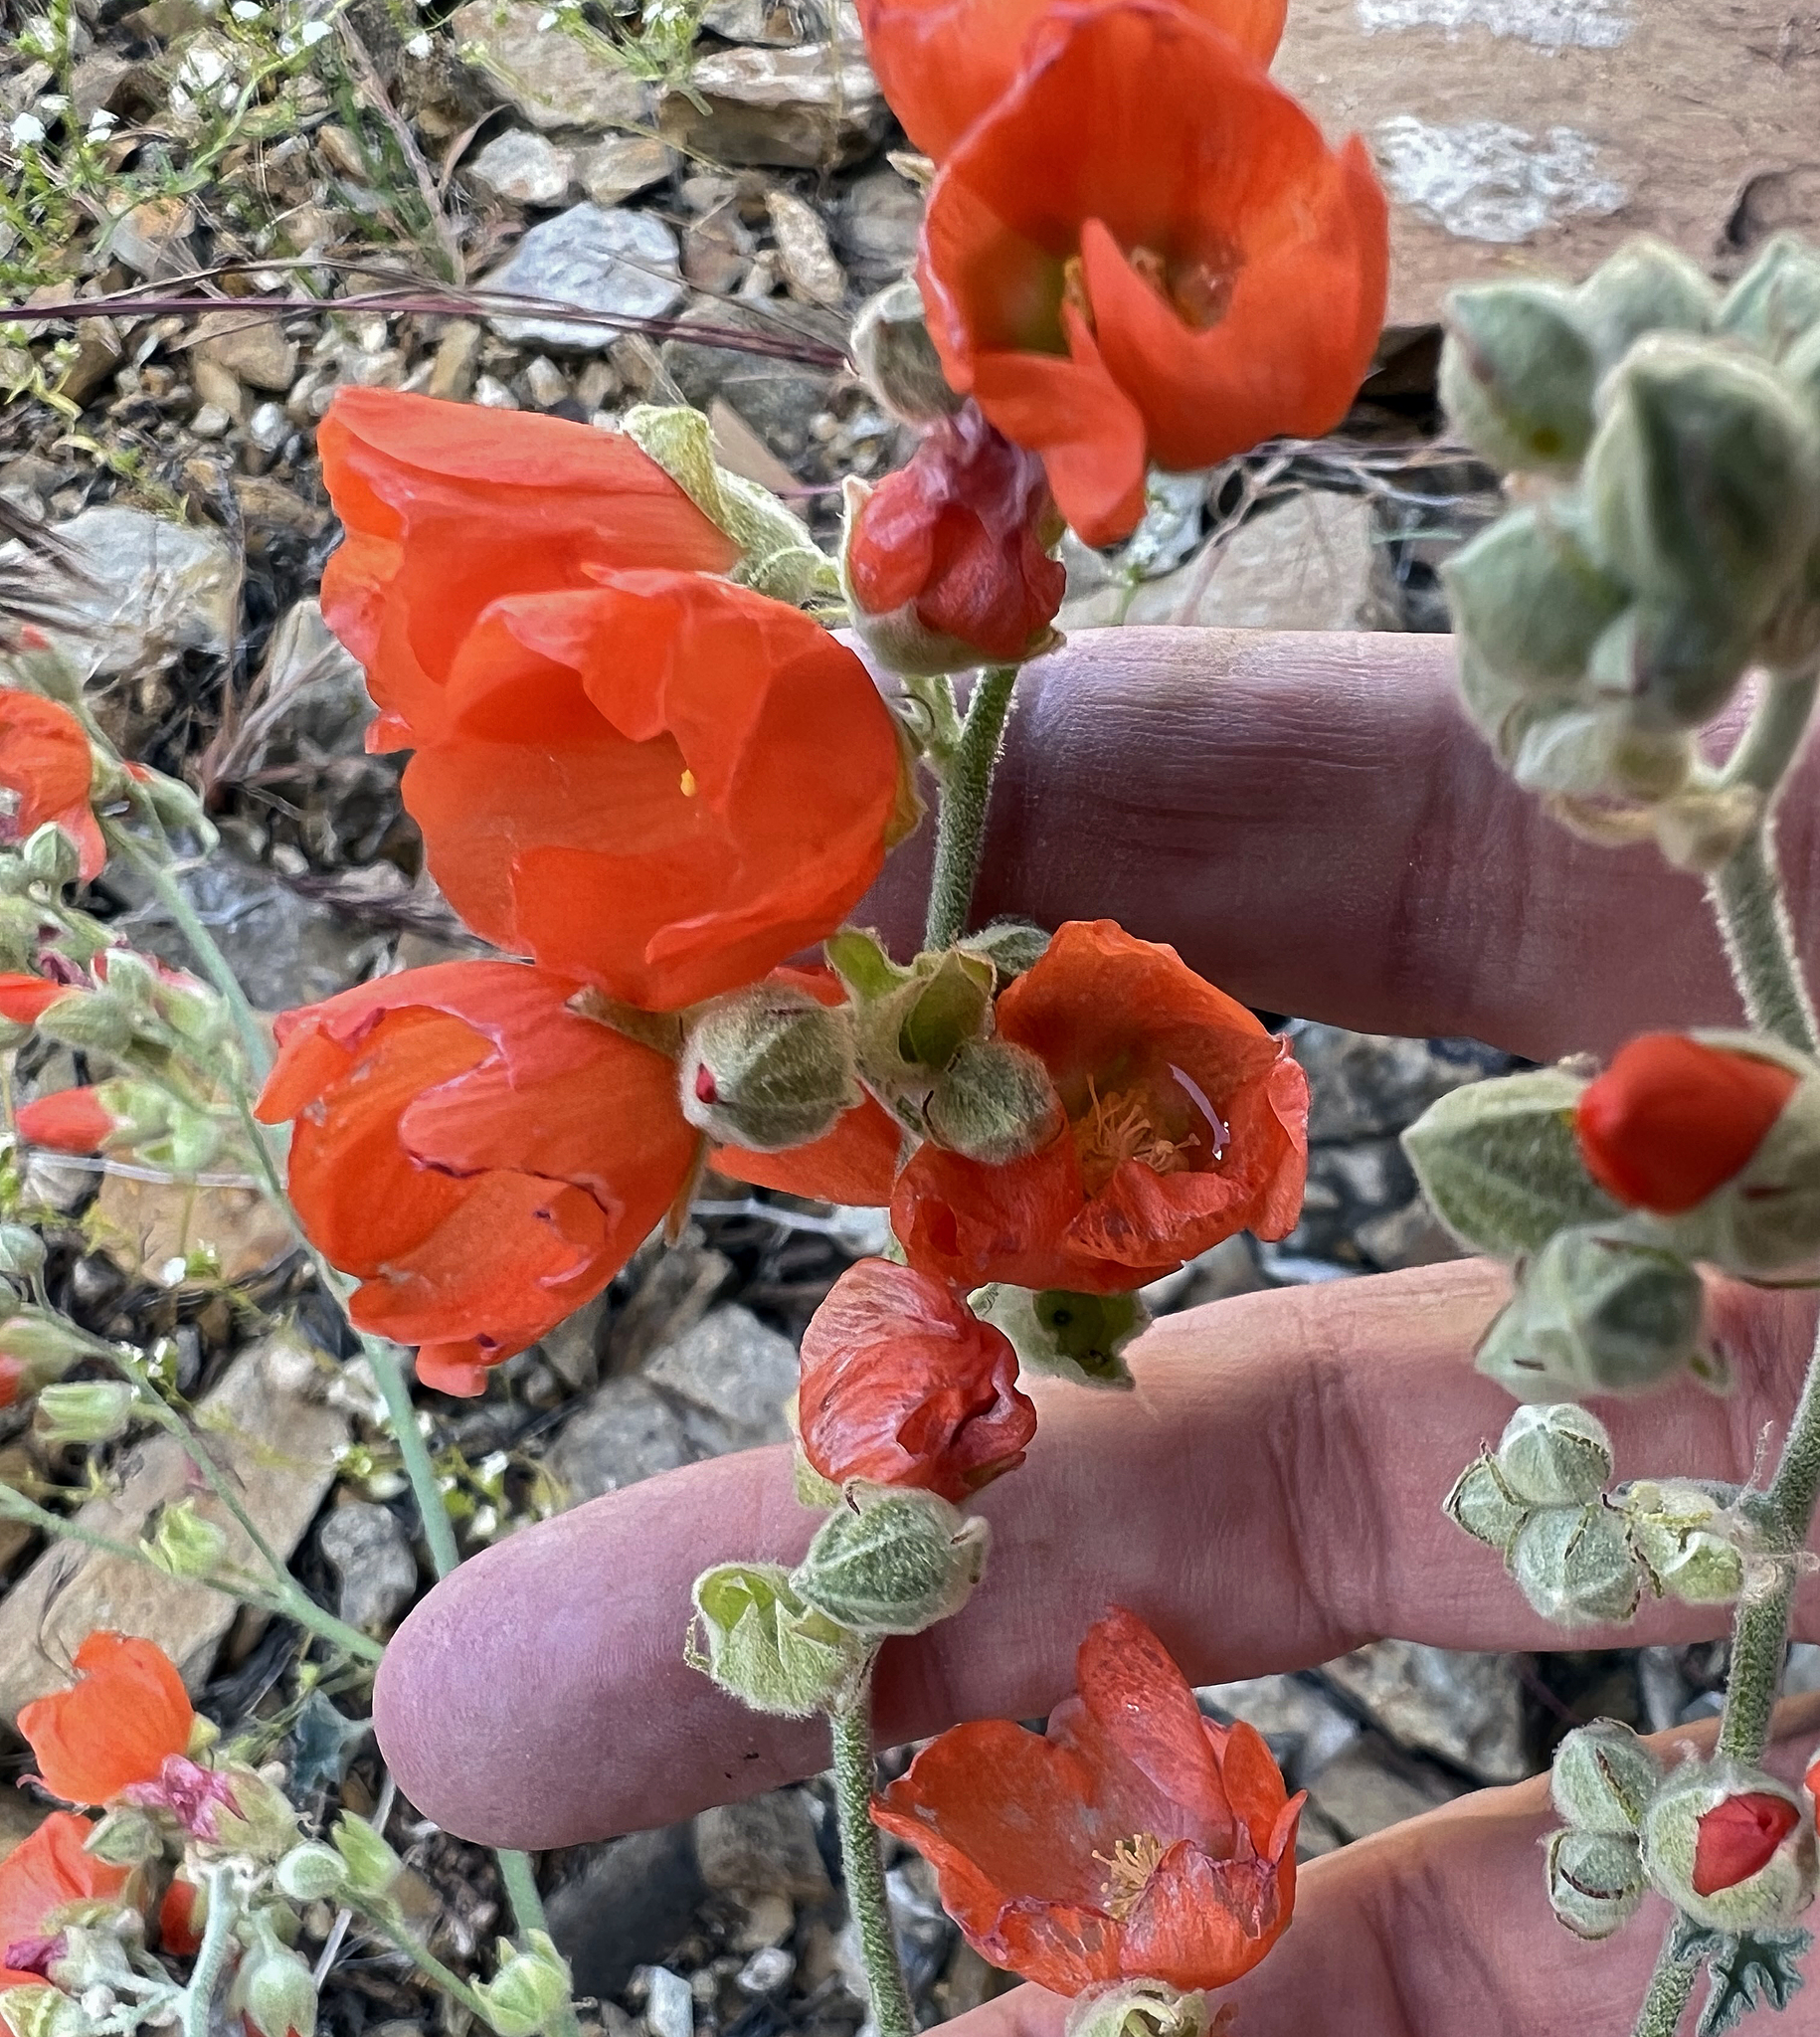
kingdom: Plantae
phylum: Tracheophyta
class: Magnoliopsida
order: Malvales
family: Malvaceae
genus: Sphaeralcea
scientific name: Sphaeralcea ambigua
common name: Apricot globe-mallow
